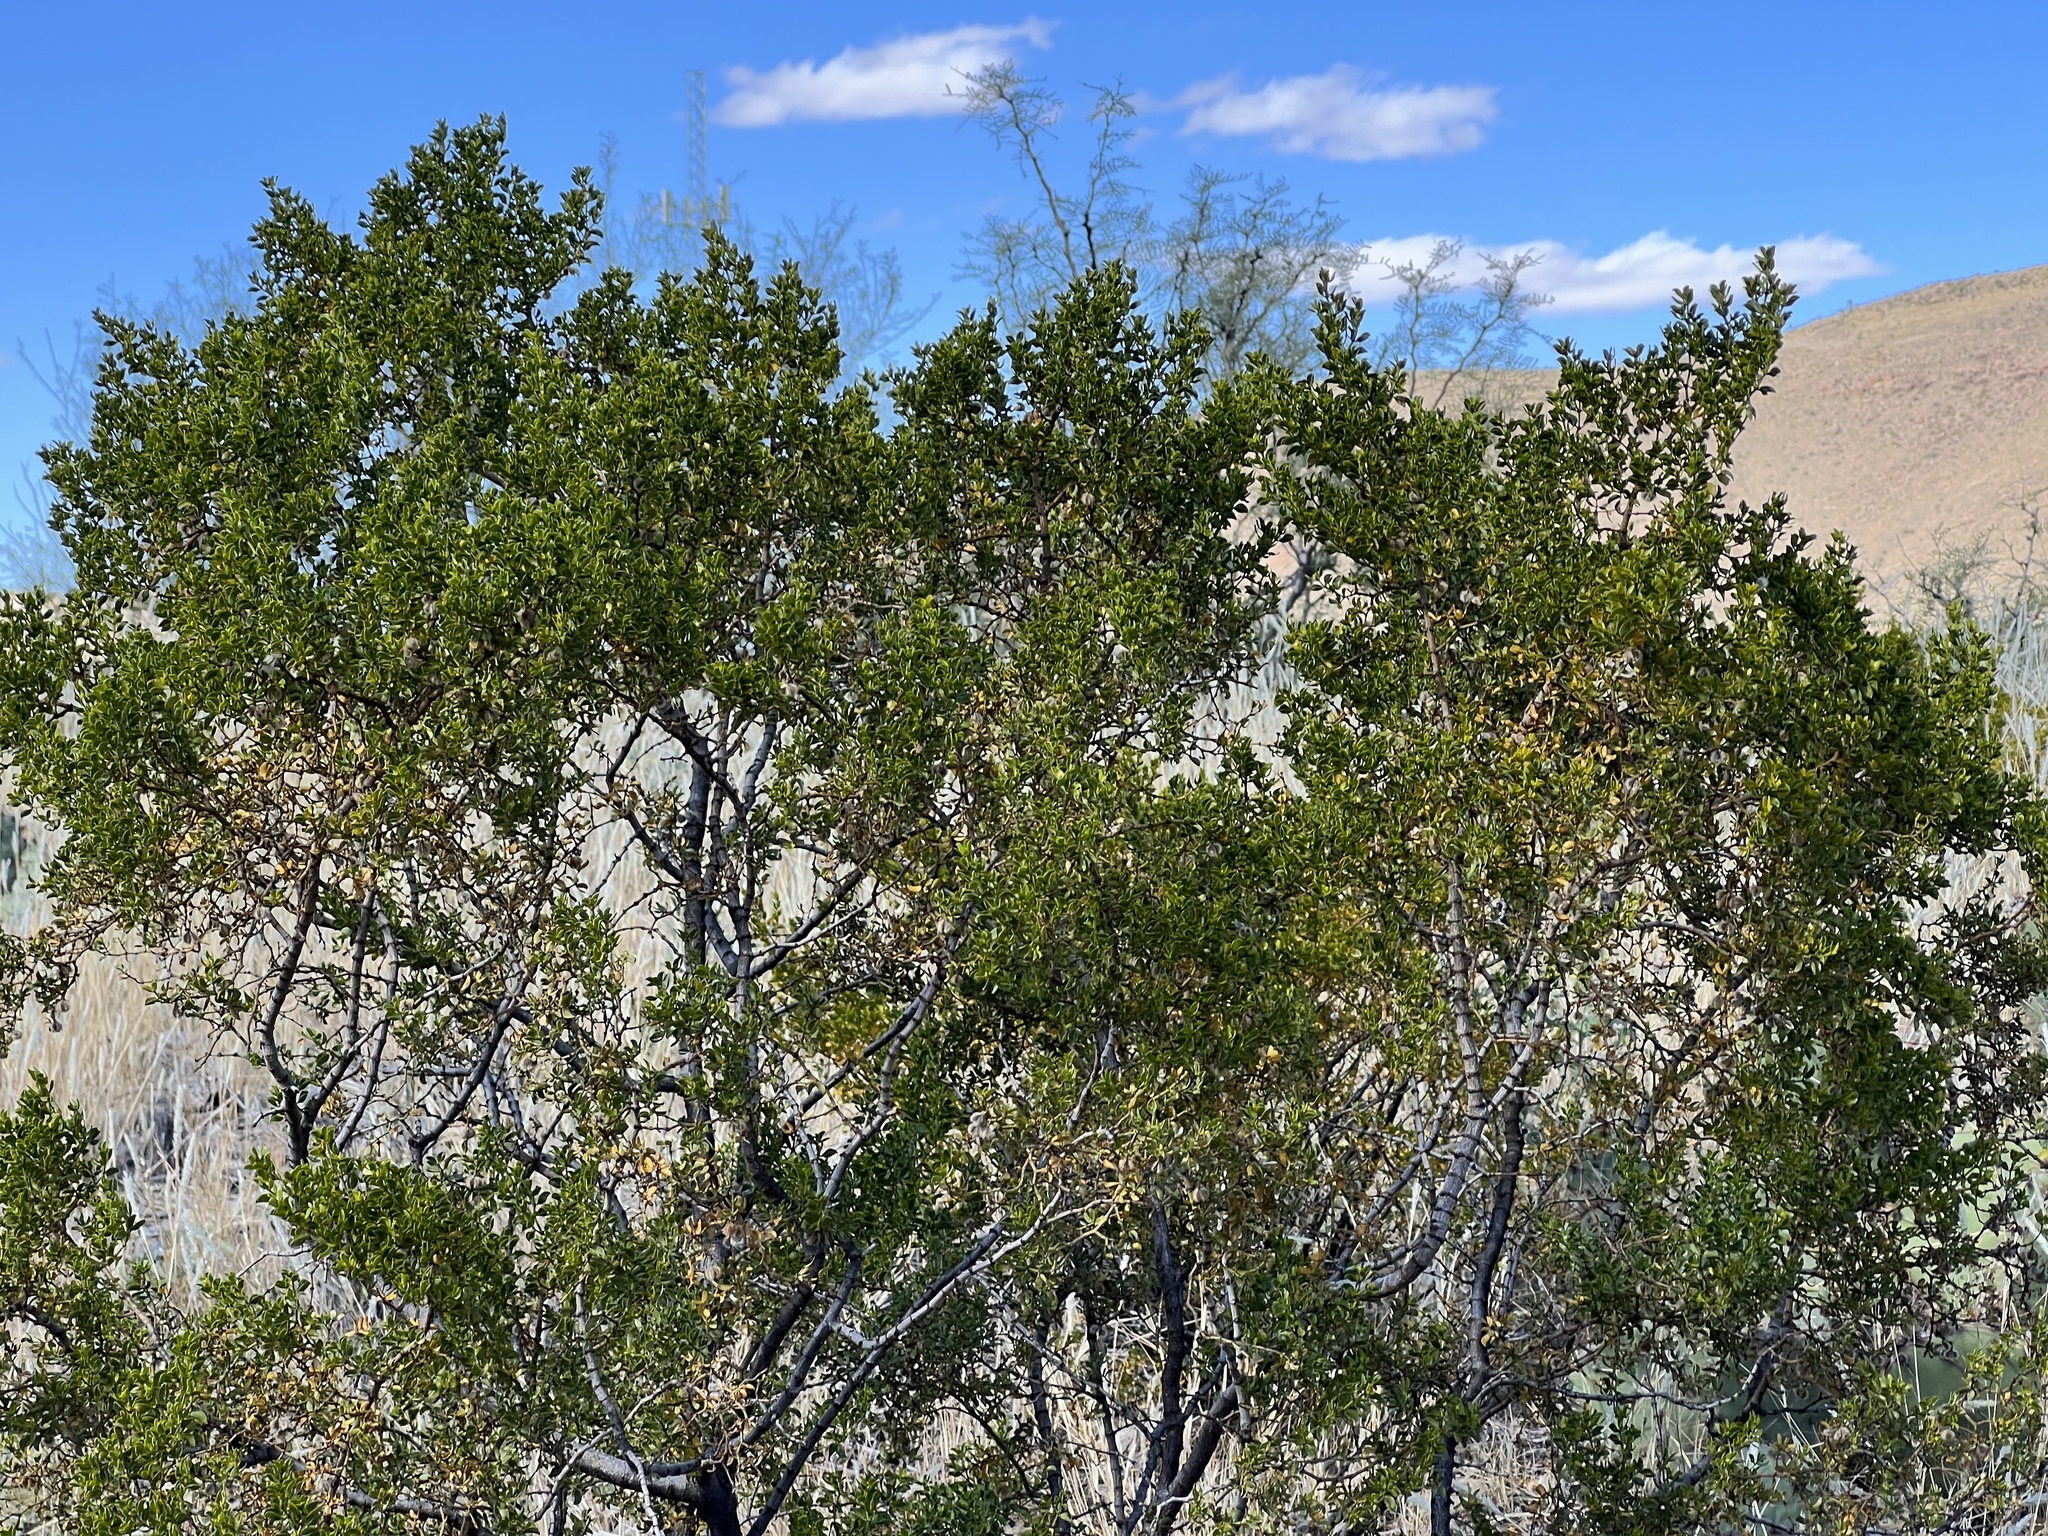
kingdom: Plantae
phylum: Tracheophyta
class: Magnoliopsida
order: Zygophyllales
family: Zygophyllaceae
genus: Larrea
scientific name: Larrea tridentata
